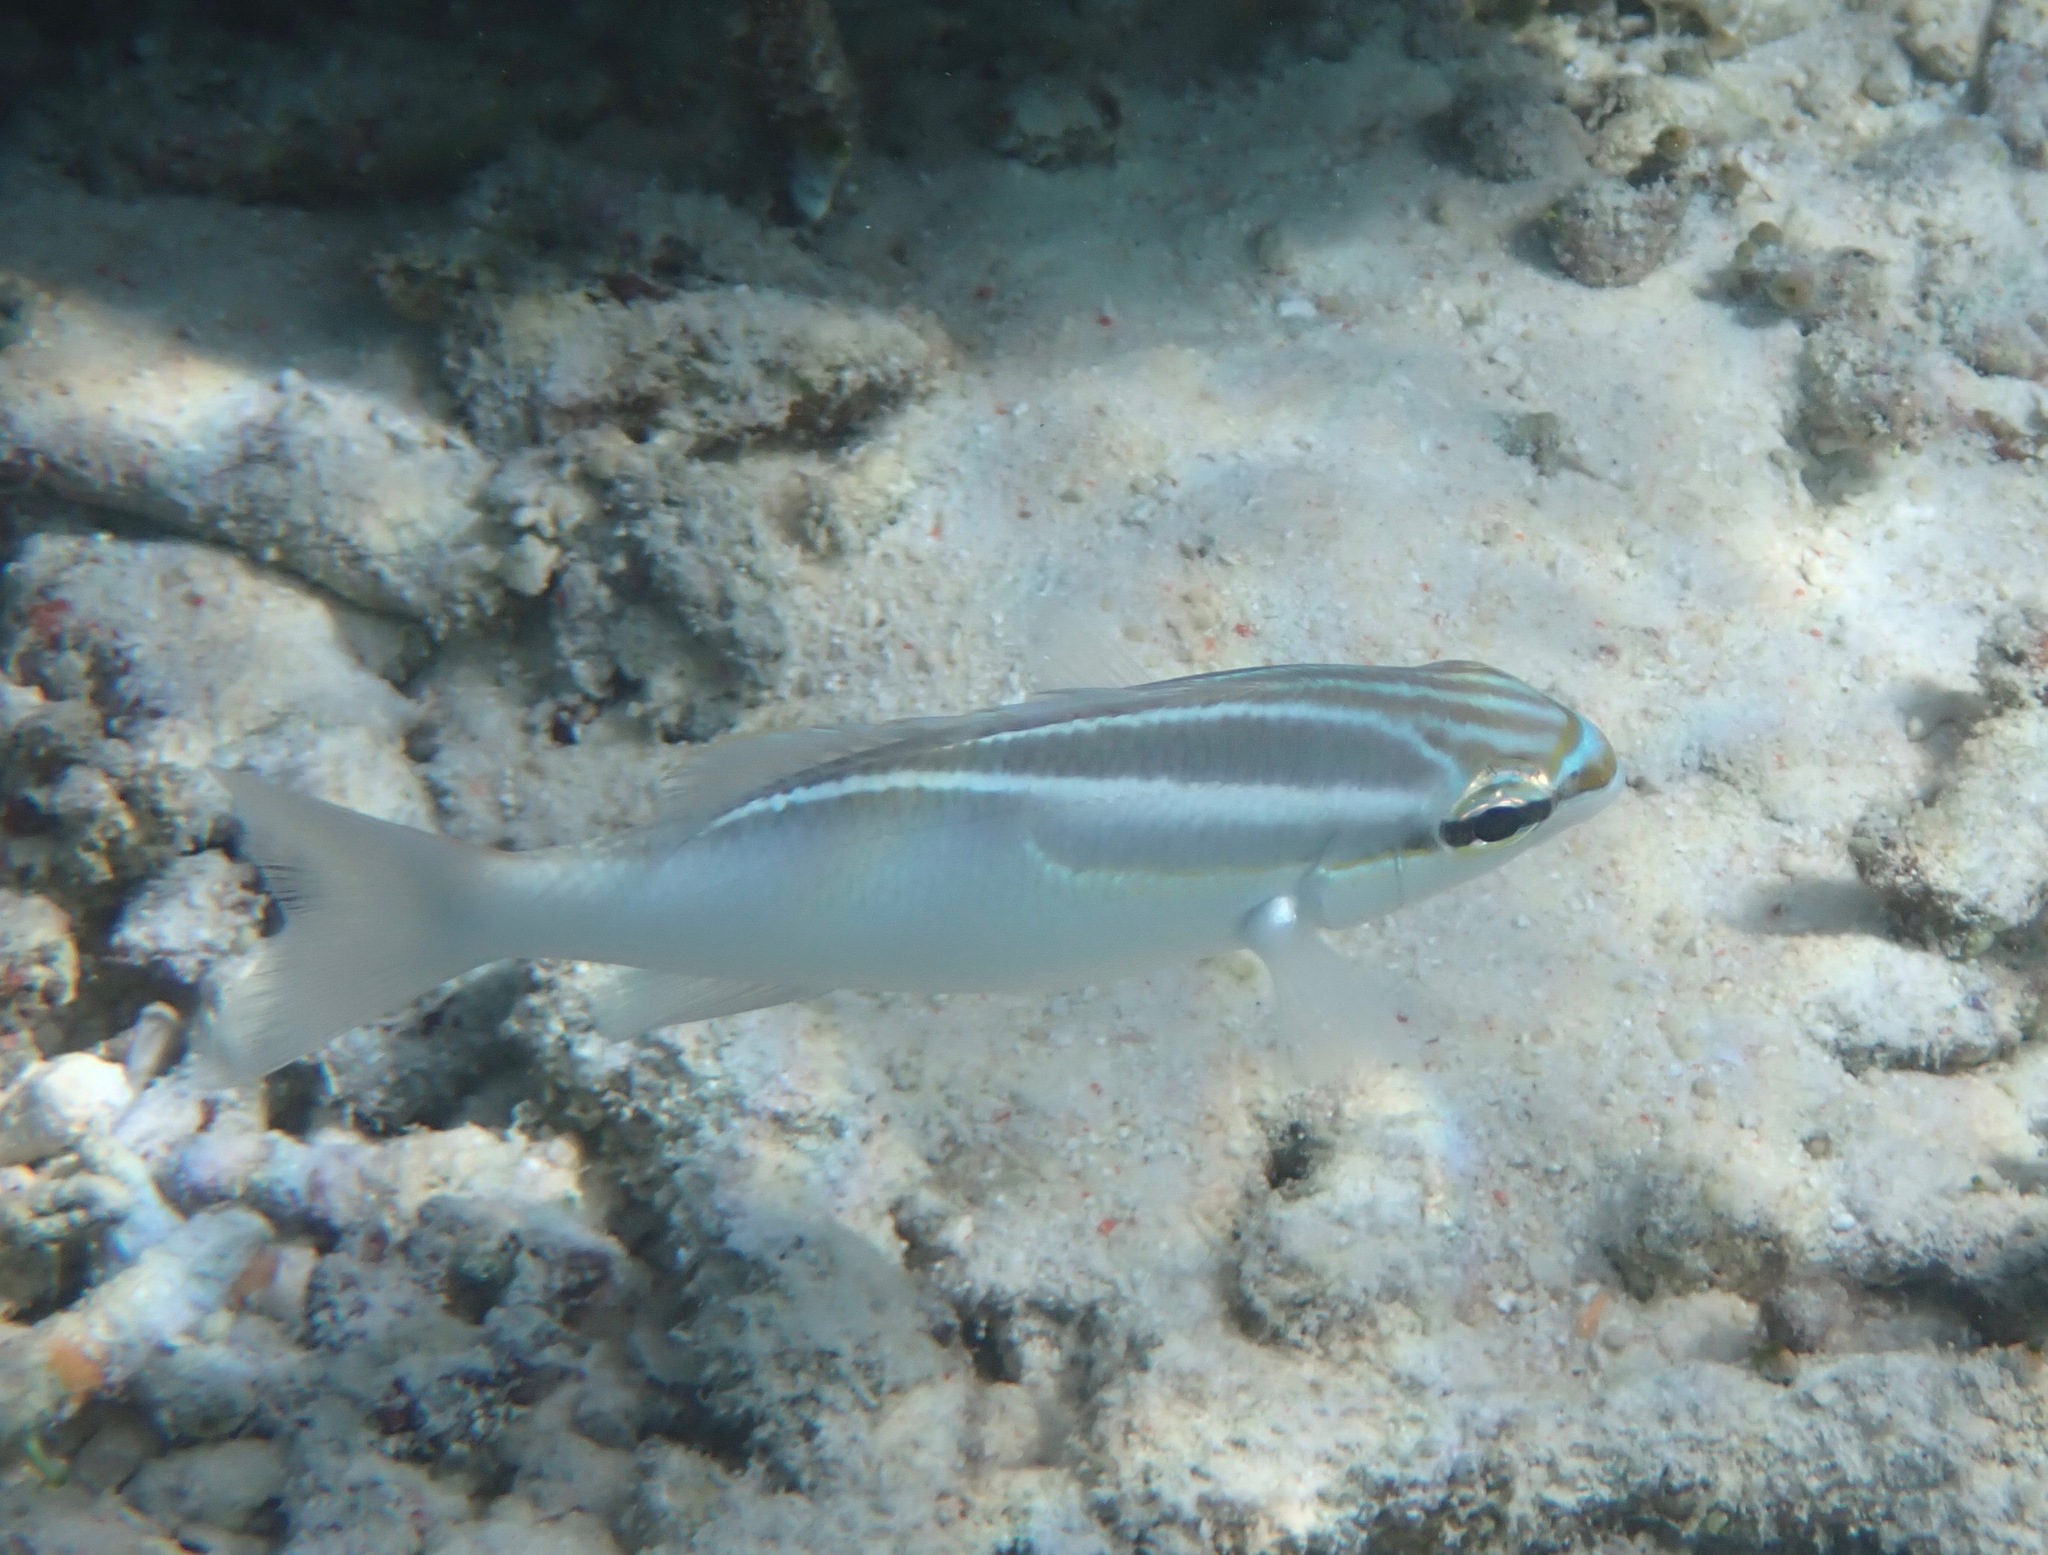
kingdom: Animalia
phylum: Chordata
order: Perciformes
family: Nemipteridae
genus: Scolopsis
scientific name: Scolopsis trilineata
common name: Three-lined monocle bream
